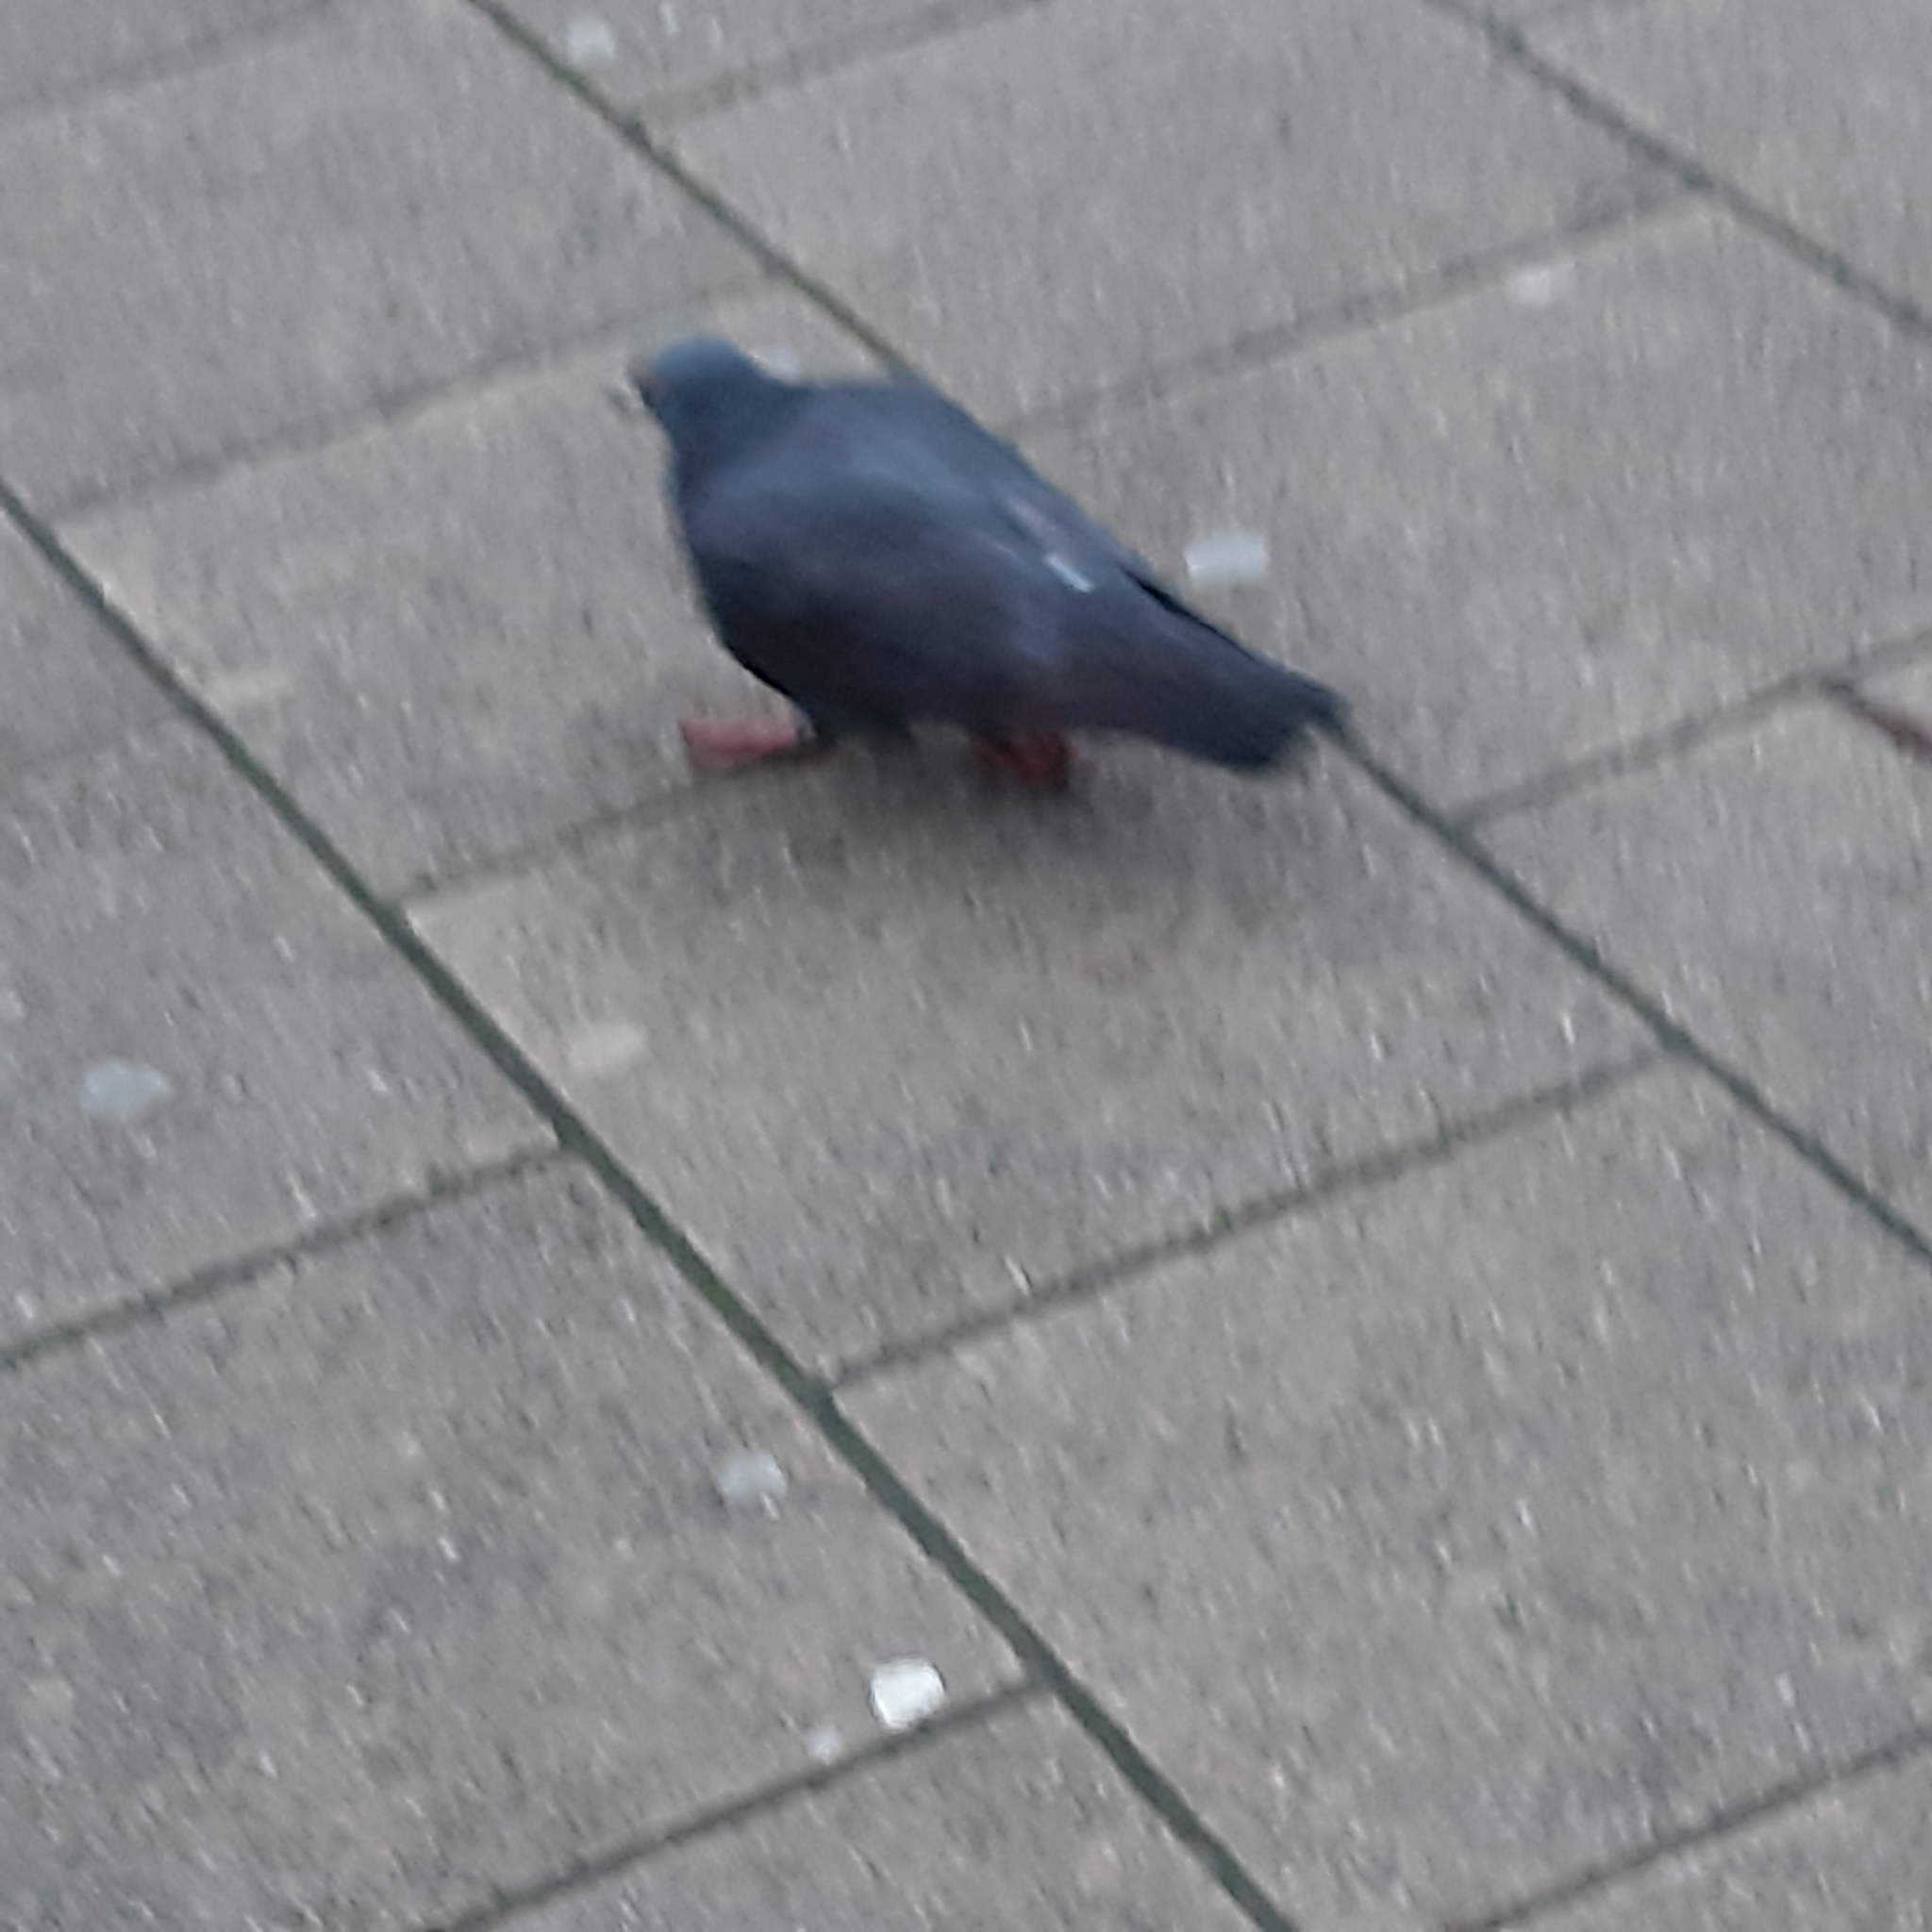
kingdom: Animalia
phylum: Chordata
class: Aves
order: Columbiformes
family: Columbidae
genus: Columba
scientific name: Columba livia
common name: Rock pigeon
